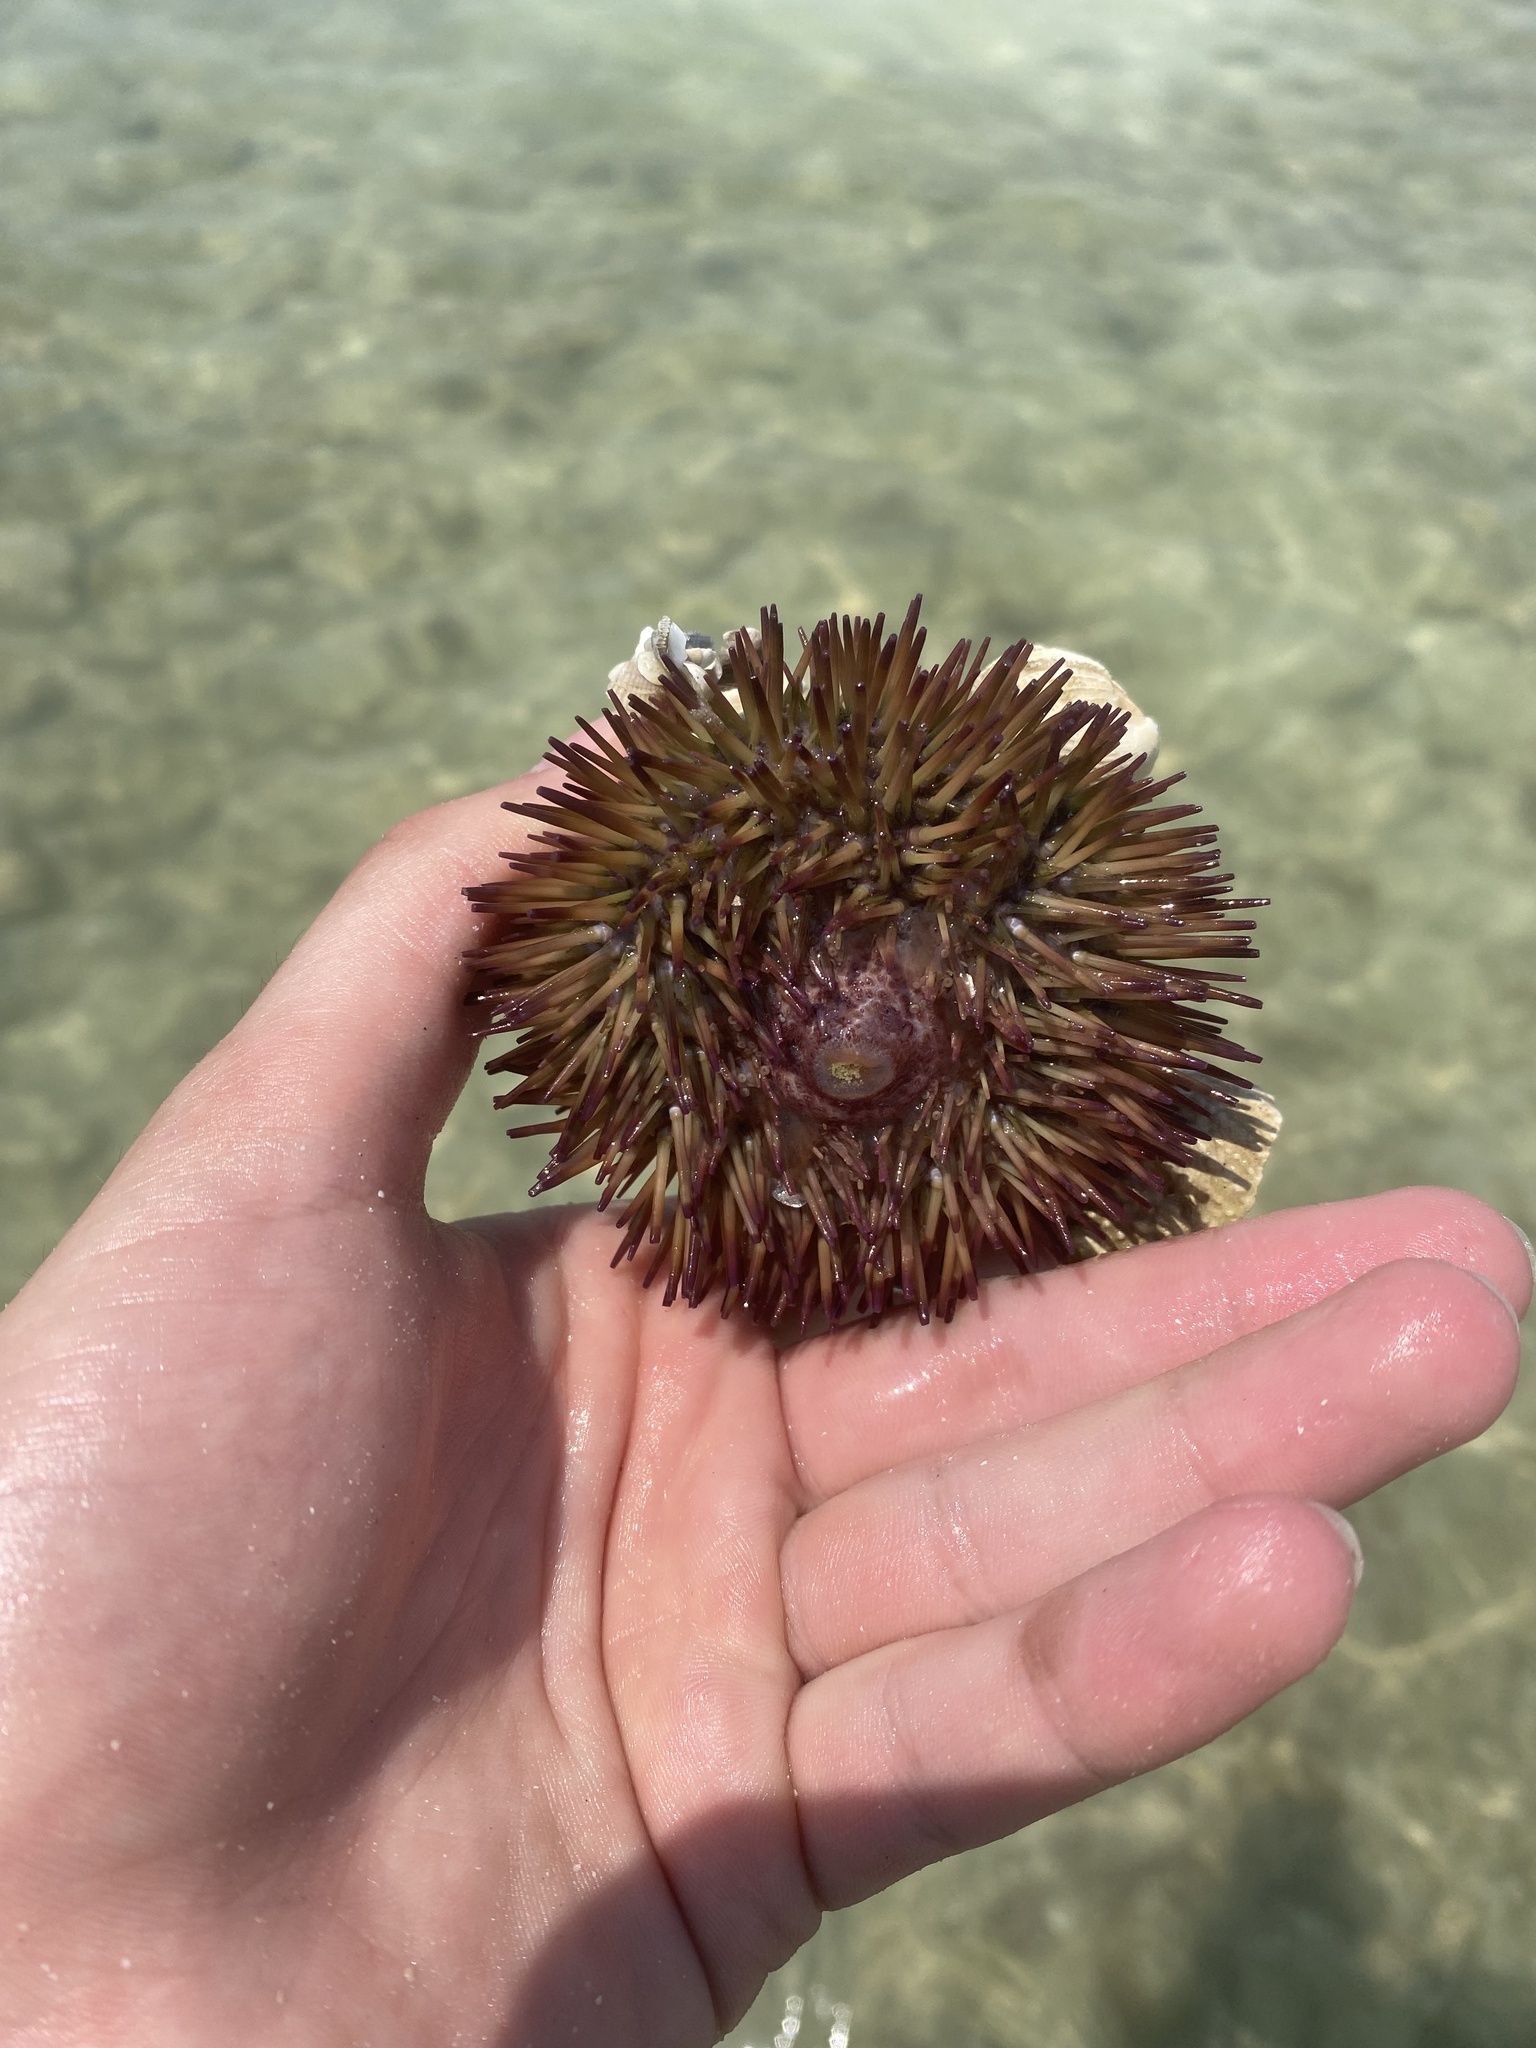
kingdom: Animalia
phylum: Echinodermata
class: Echinoidea
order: Camarodonta
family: Toxopneustidae
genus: Lytechinus
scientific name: Lytechinus variegatus
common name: Variegated urchin
